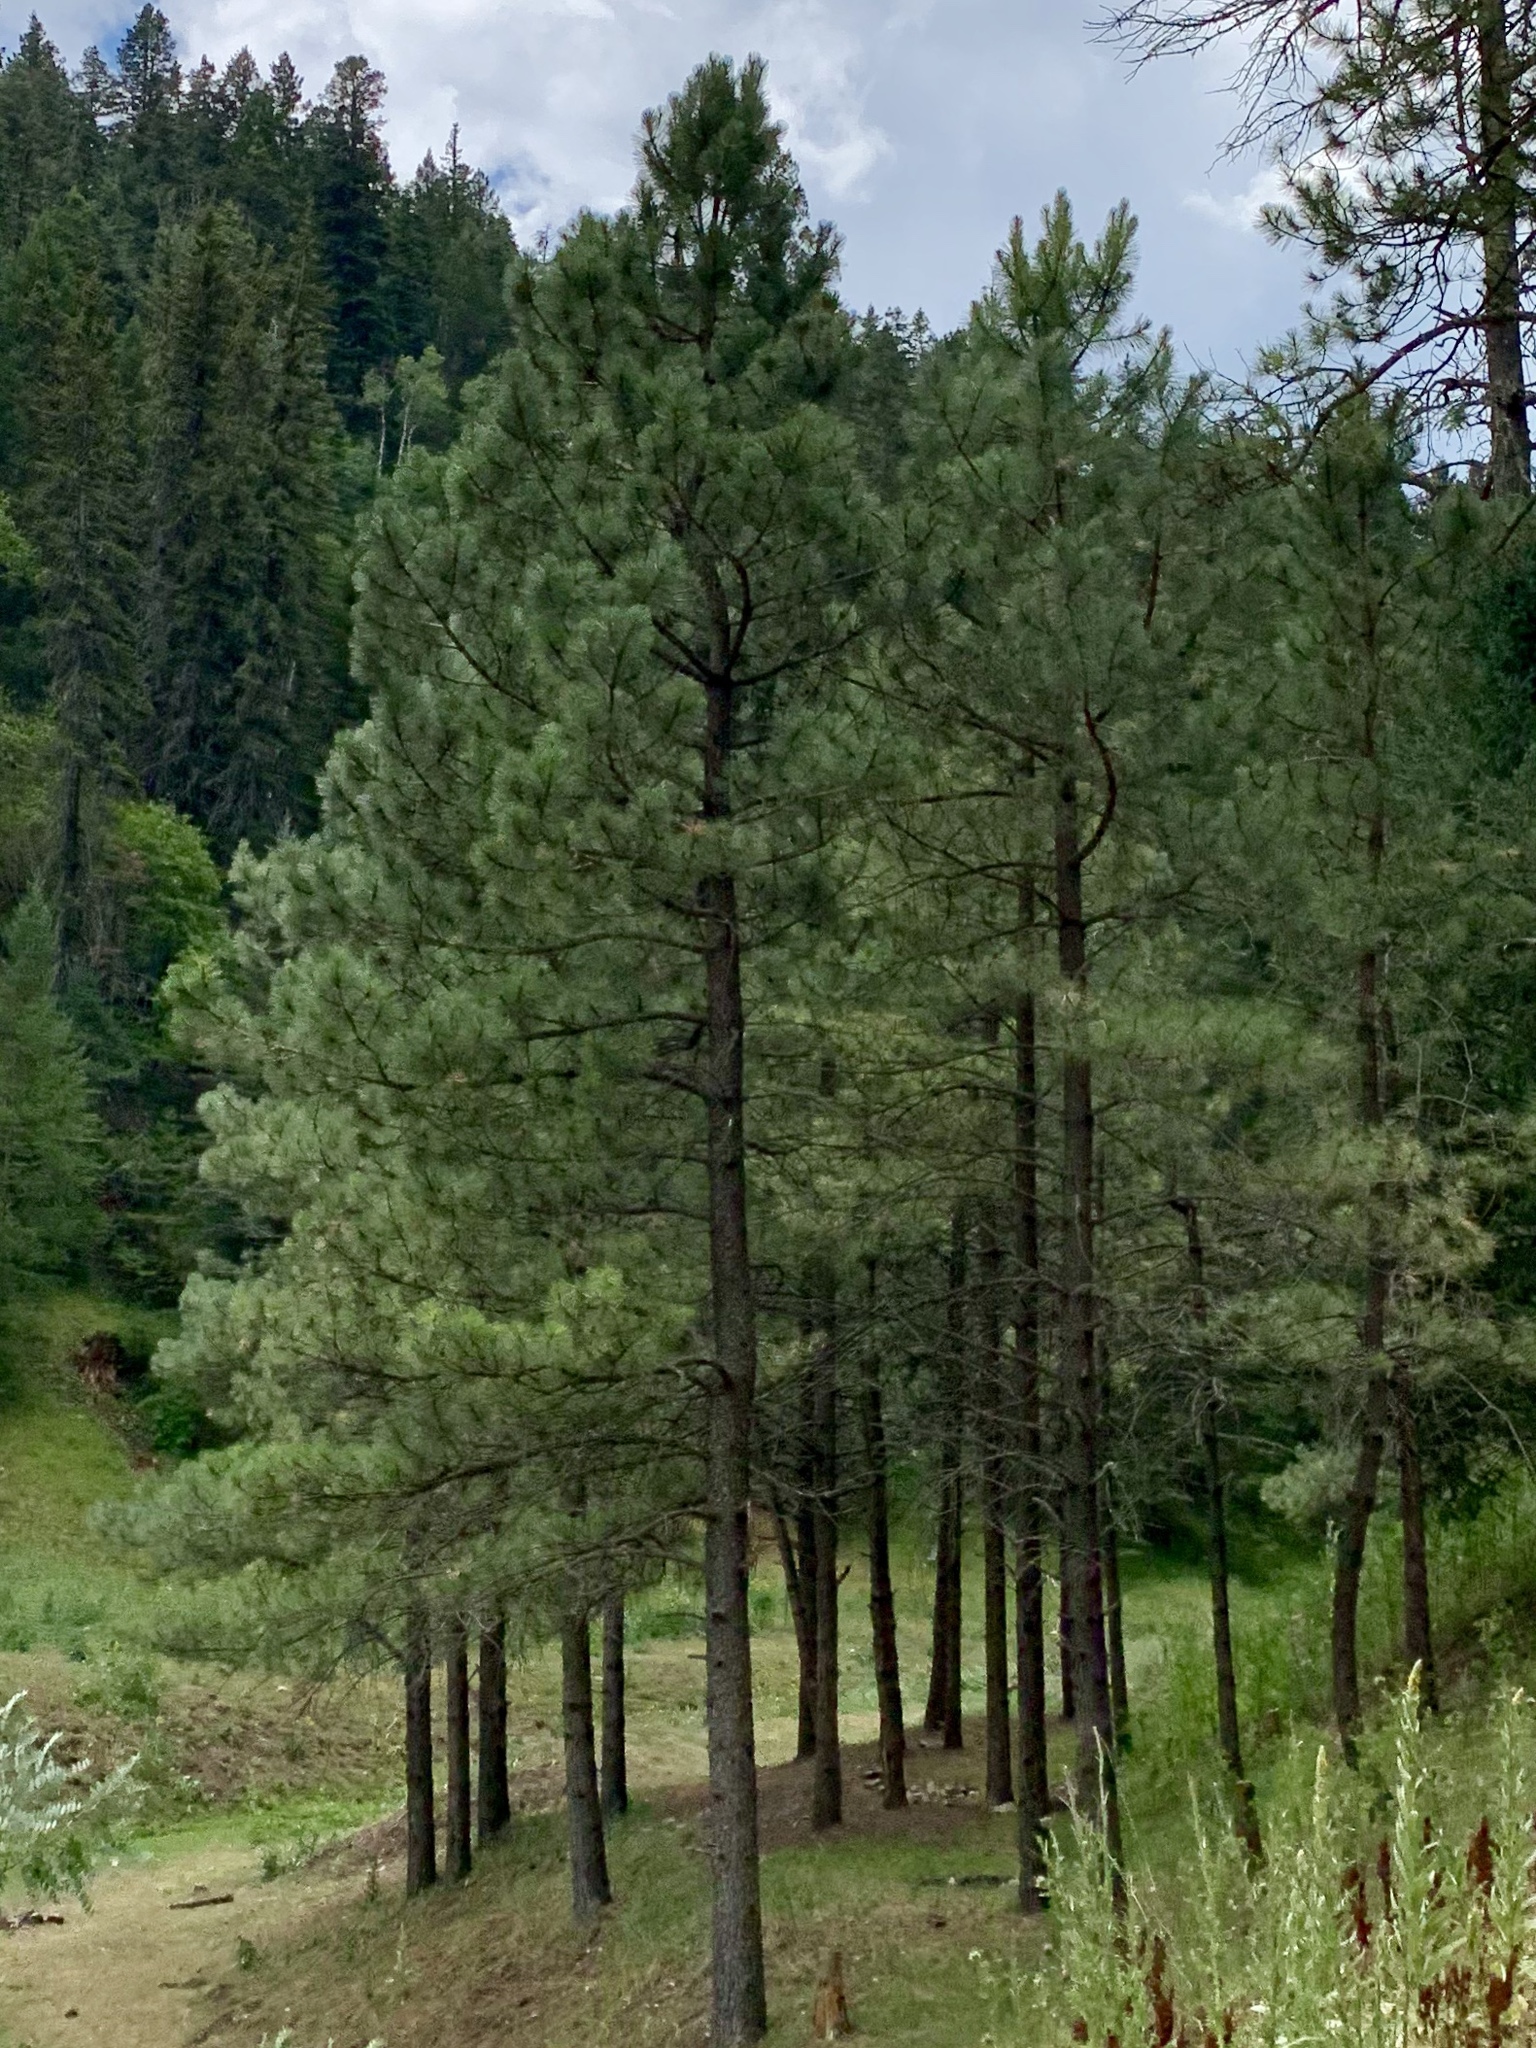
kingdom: Plantae
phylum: Tracheophyta
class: Pinopsida
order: Pinales
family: Pinaceae
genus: Pinus
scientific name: Pinus ponderosa
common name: Western yellow-pine
